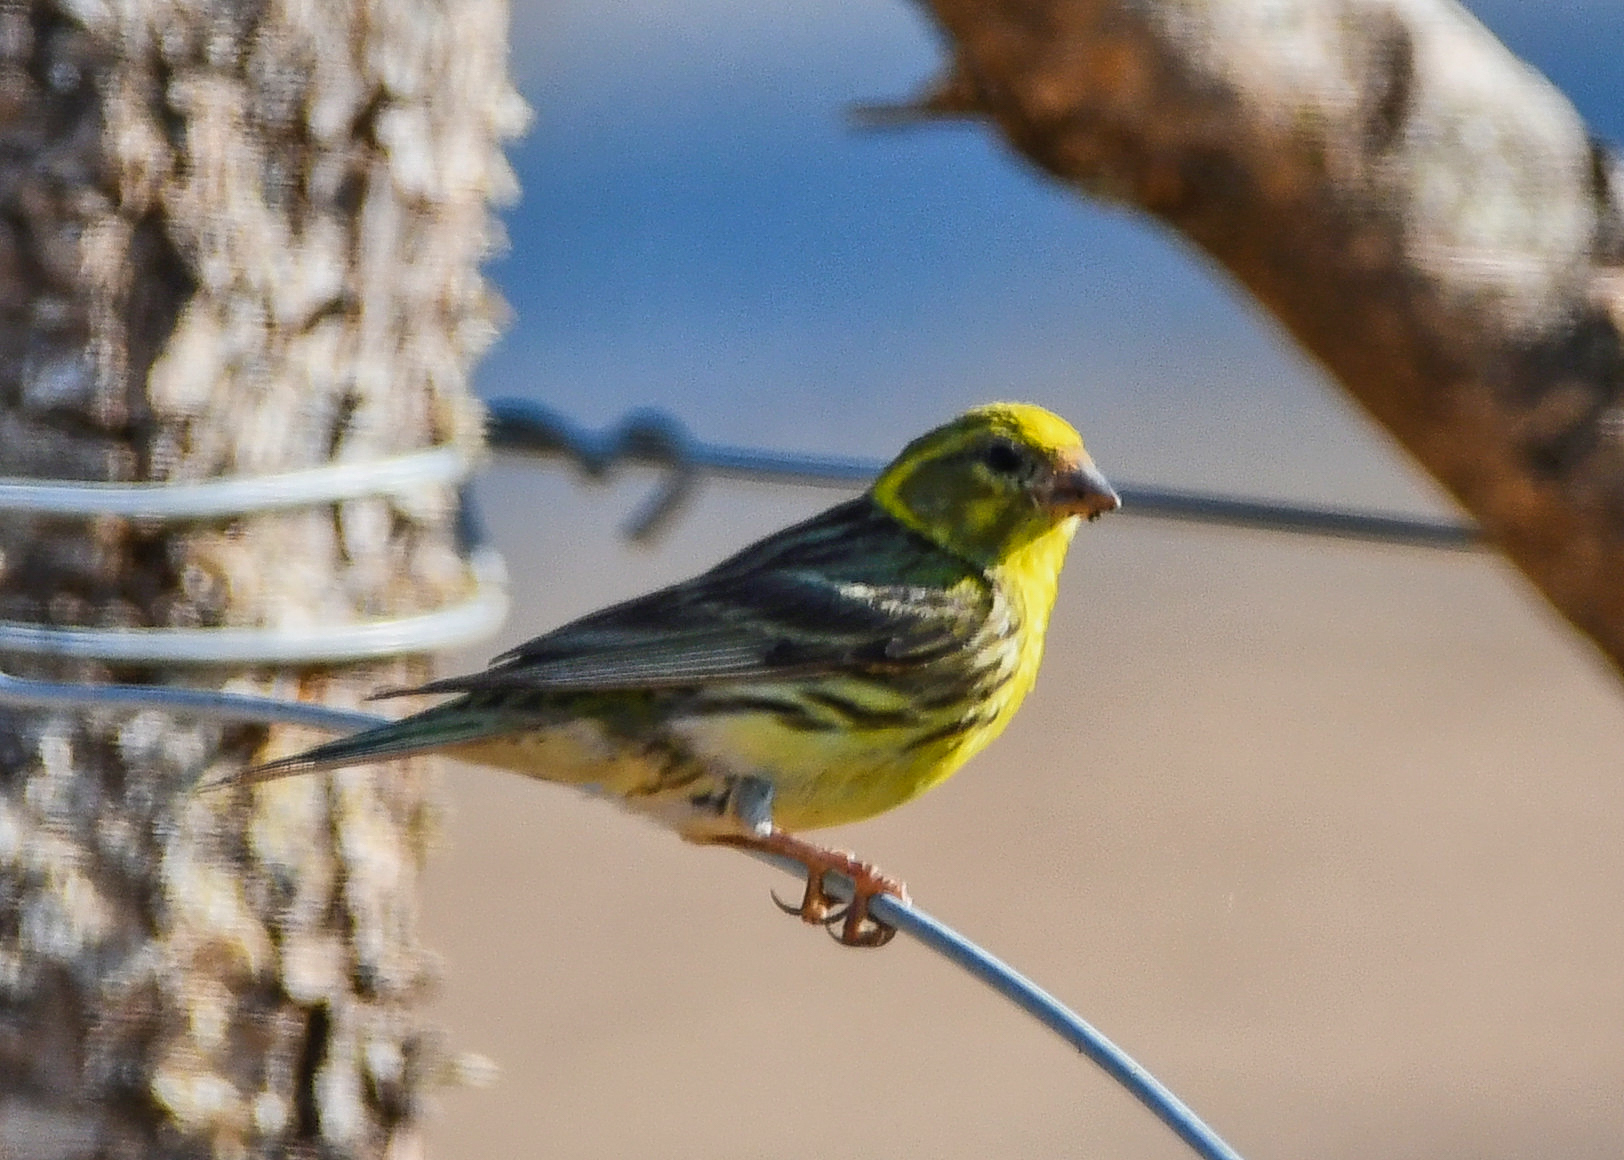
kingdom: Animalia
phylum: Chordata
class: Aves
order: Passeriformes
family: Fringillidae
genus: Serinus
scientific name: Serinus serinus
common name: European serin
